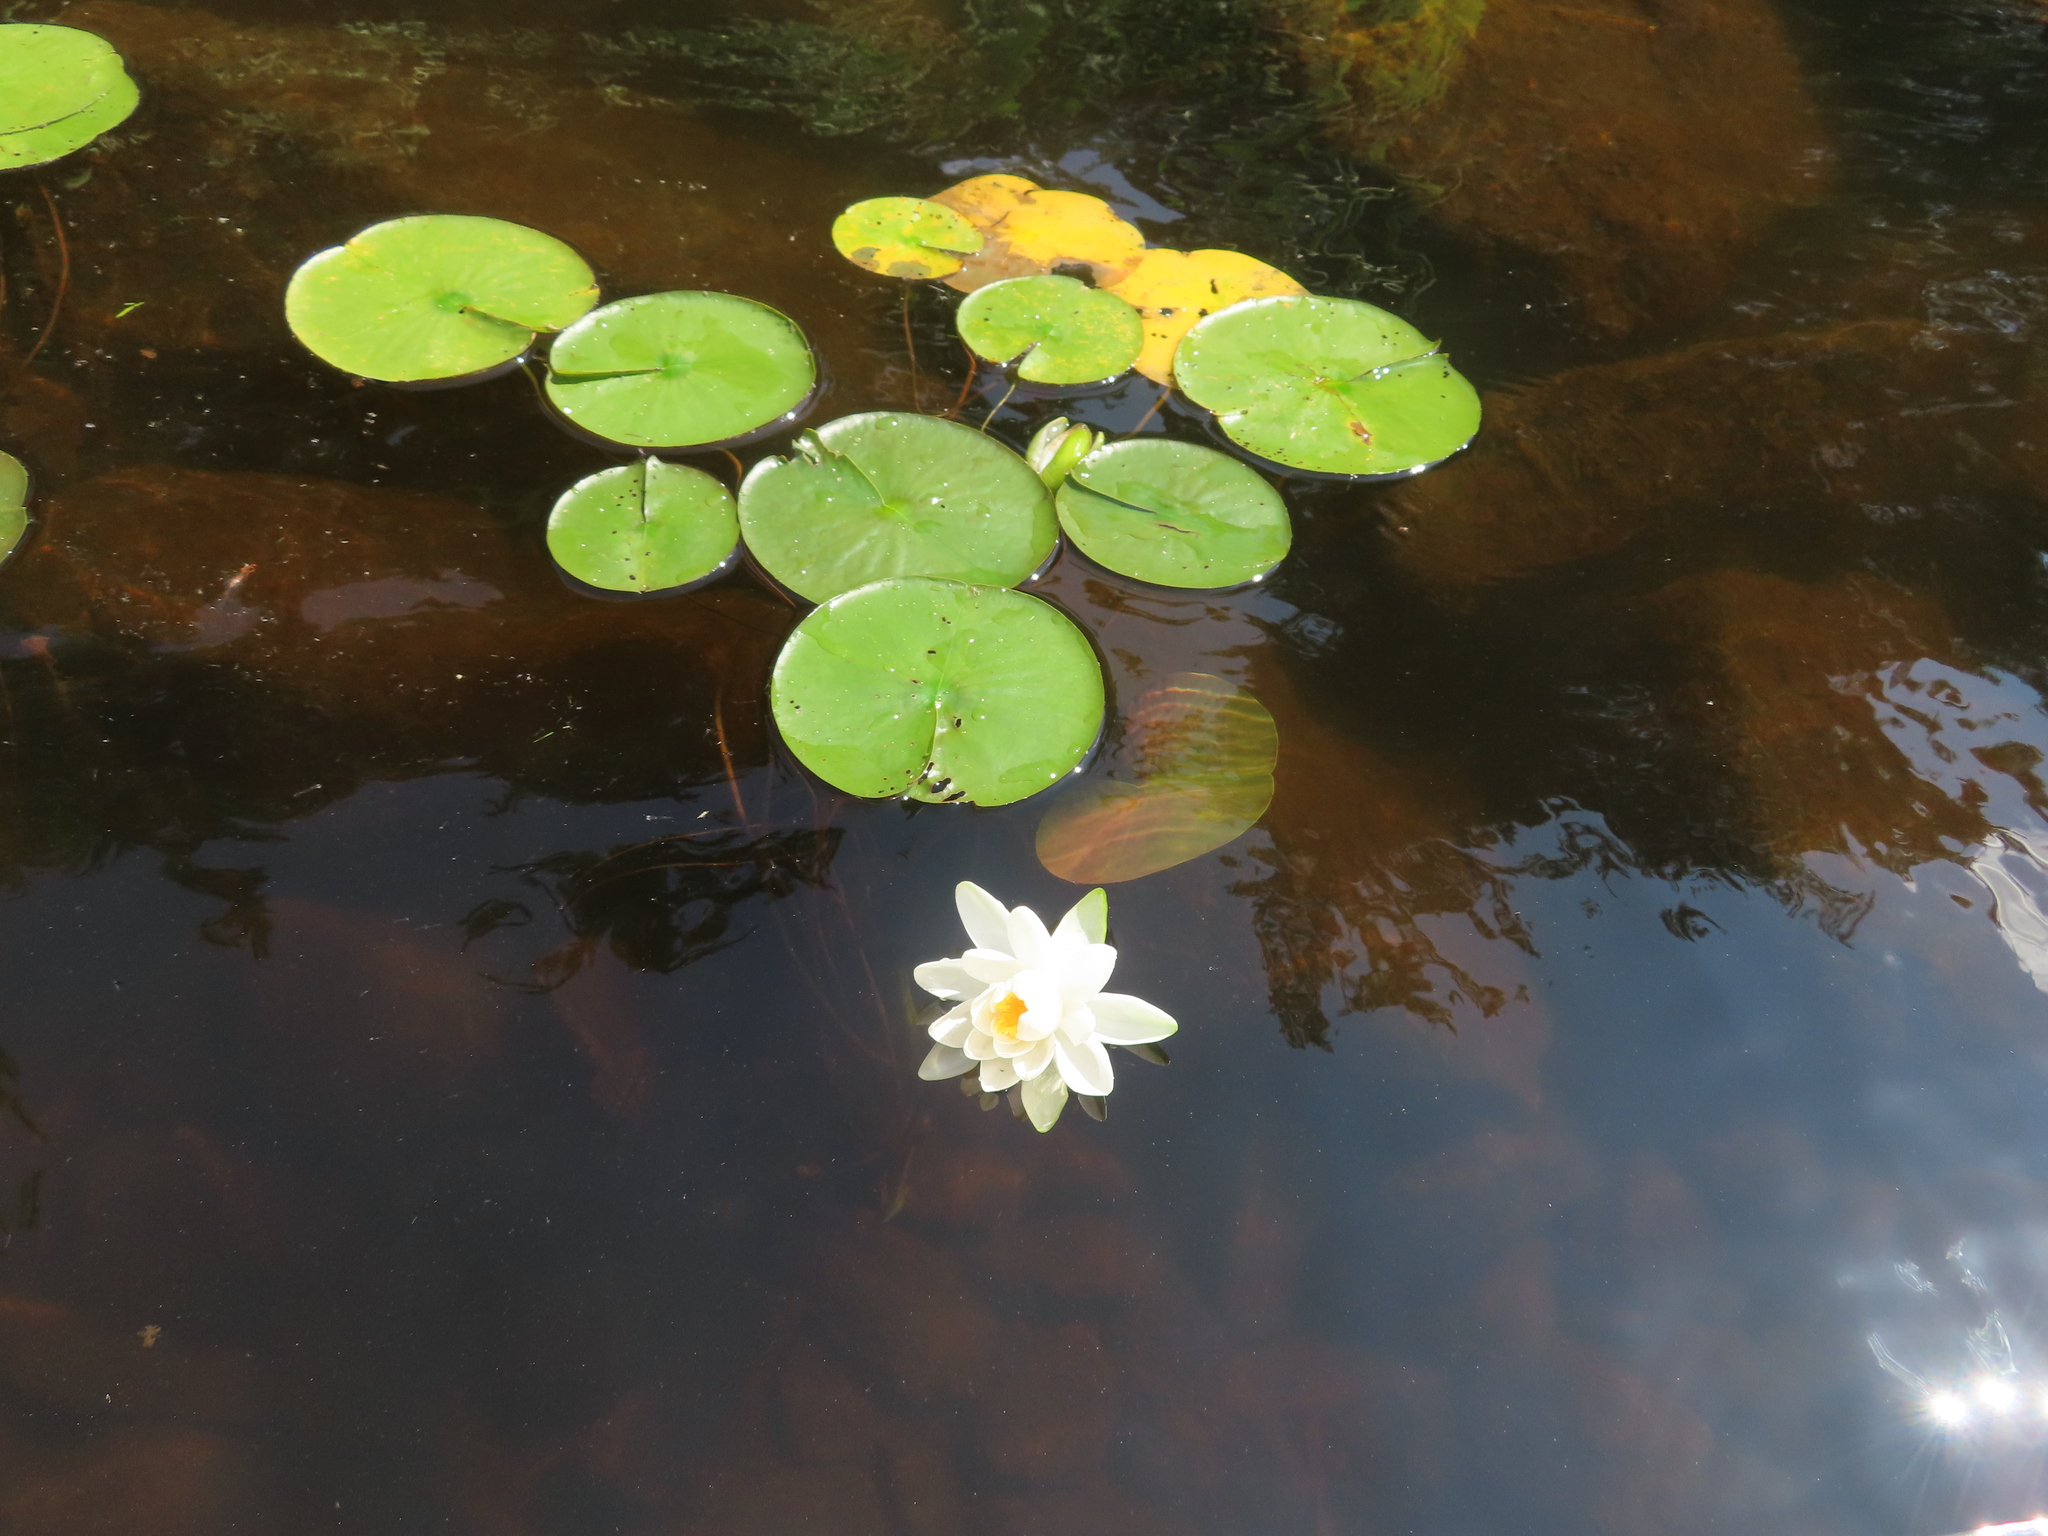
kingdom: Plantae
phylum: Tracheophyta
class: Magnoliopsida
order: Nymphaeales
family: Nymphaeaceae
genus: Nymphaea
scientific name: Nymphaea odorata
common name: Fragrant water-lily
